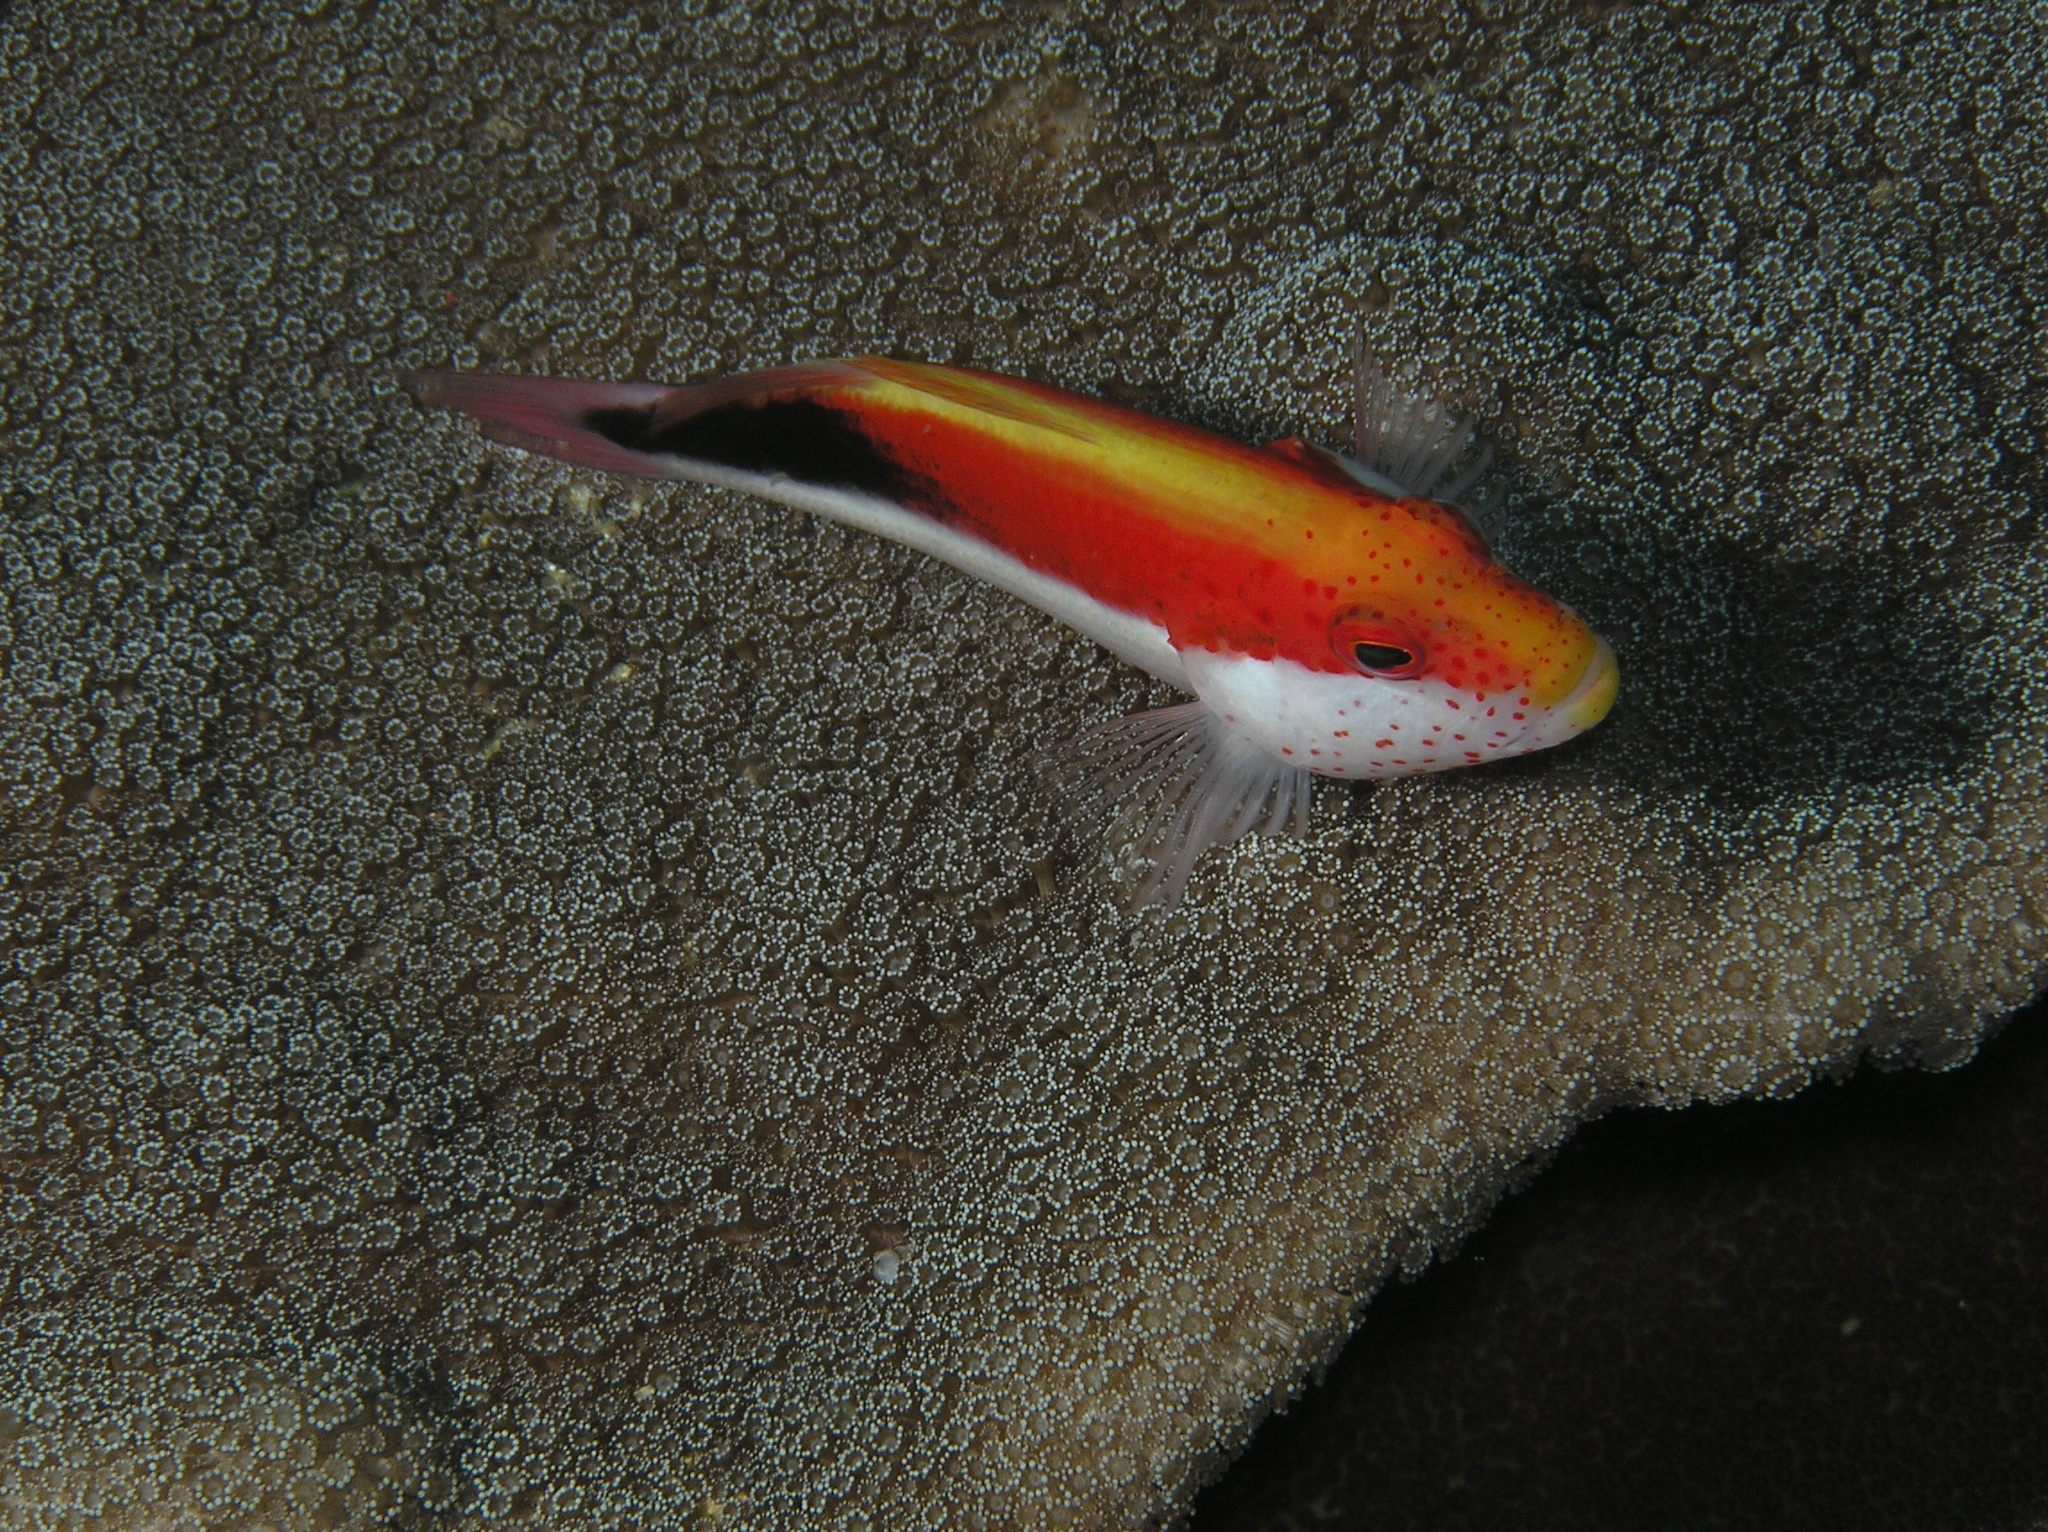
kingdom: Animalia
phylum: Chordata
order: Perciformes
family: Cirrhitidae
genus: Paracirrhites
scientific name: Paracirrhites forsteri
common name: Freckled hawkfish
